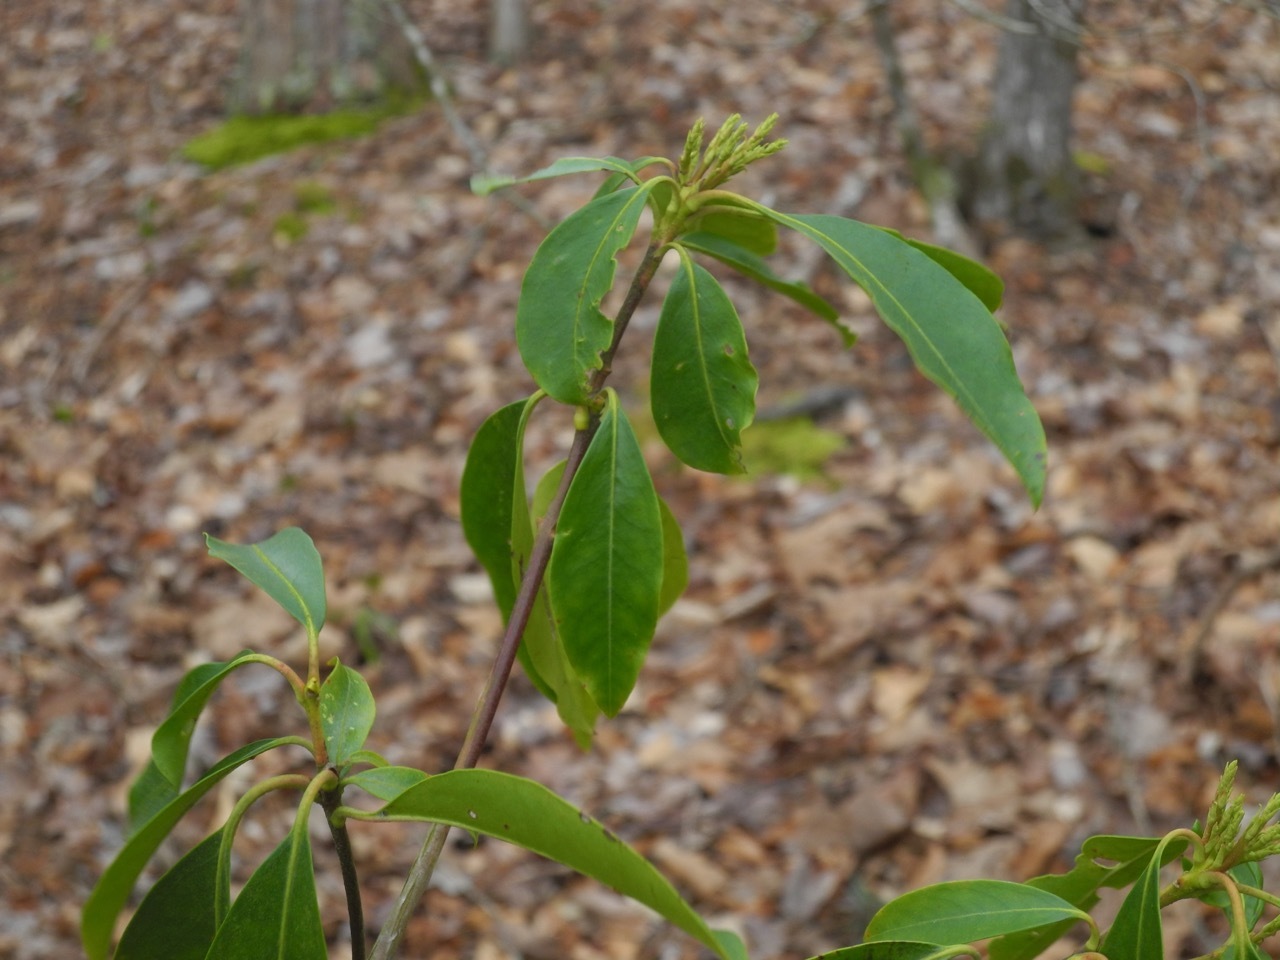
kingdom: Plantae
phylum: Tracheophyta
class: Magnoliopsida
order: Ericales
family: Ericaceae
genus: Kalmia
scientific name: Kalmia latifolia
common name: Mountain-laurel
